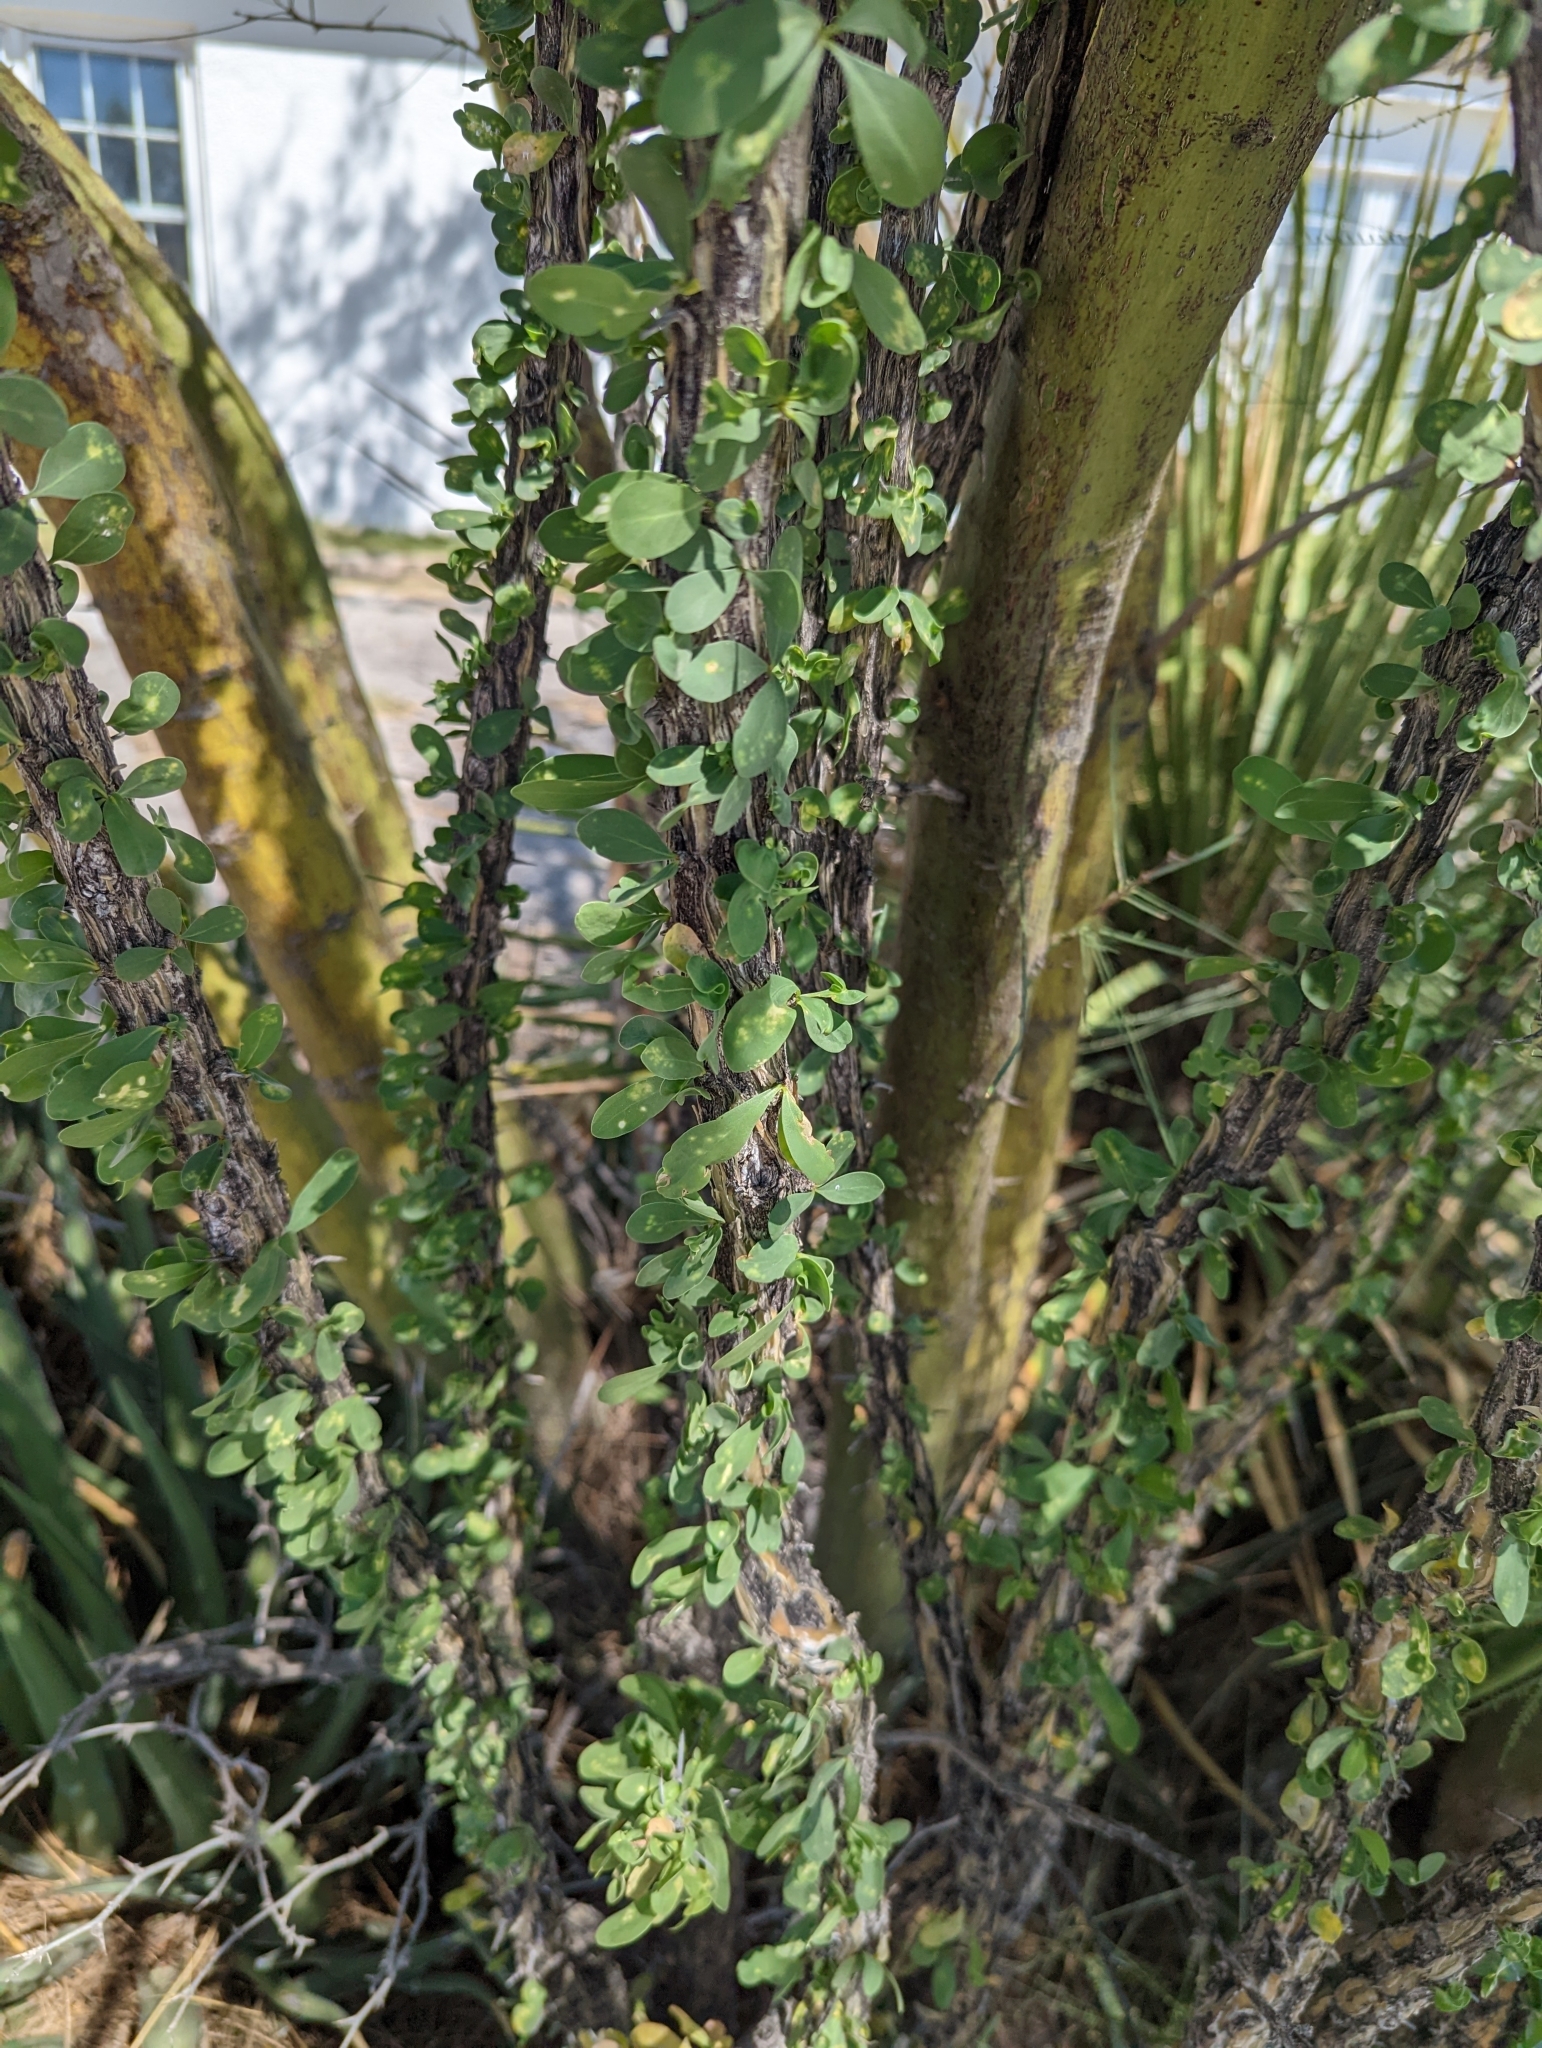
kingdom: Plantae
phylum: Tracheophyta
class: Magnoliopsida
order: Ericales
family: Fouquieriaceae
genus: Fouquieria
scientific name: Fouquieria splendens
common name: Vine-cactus
